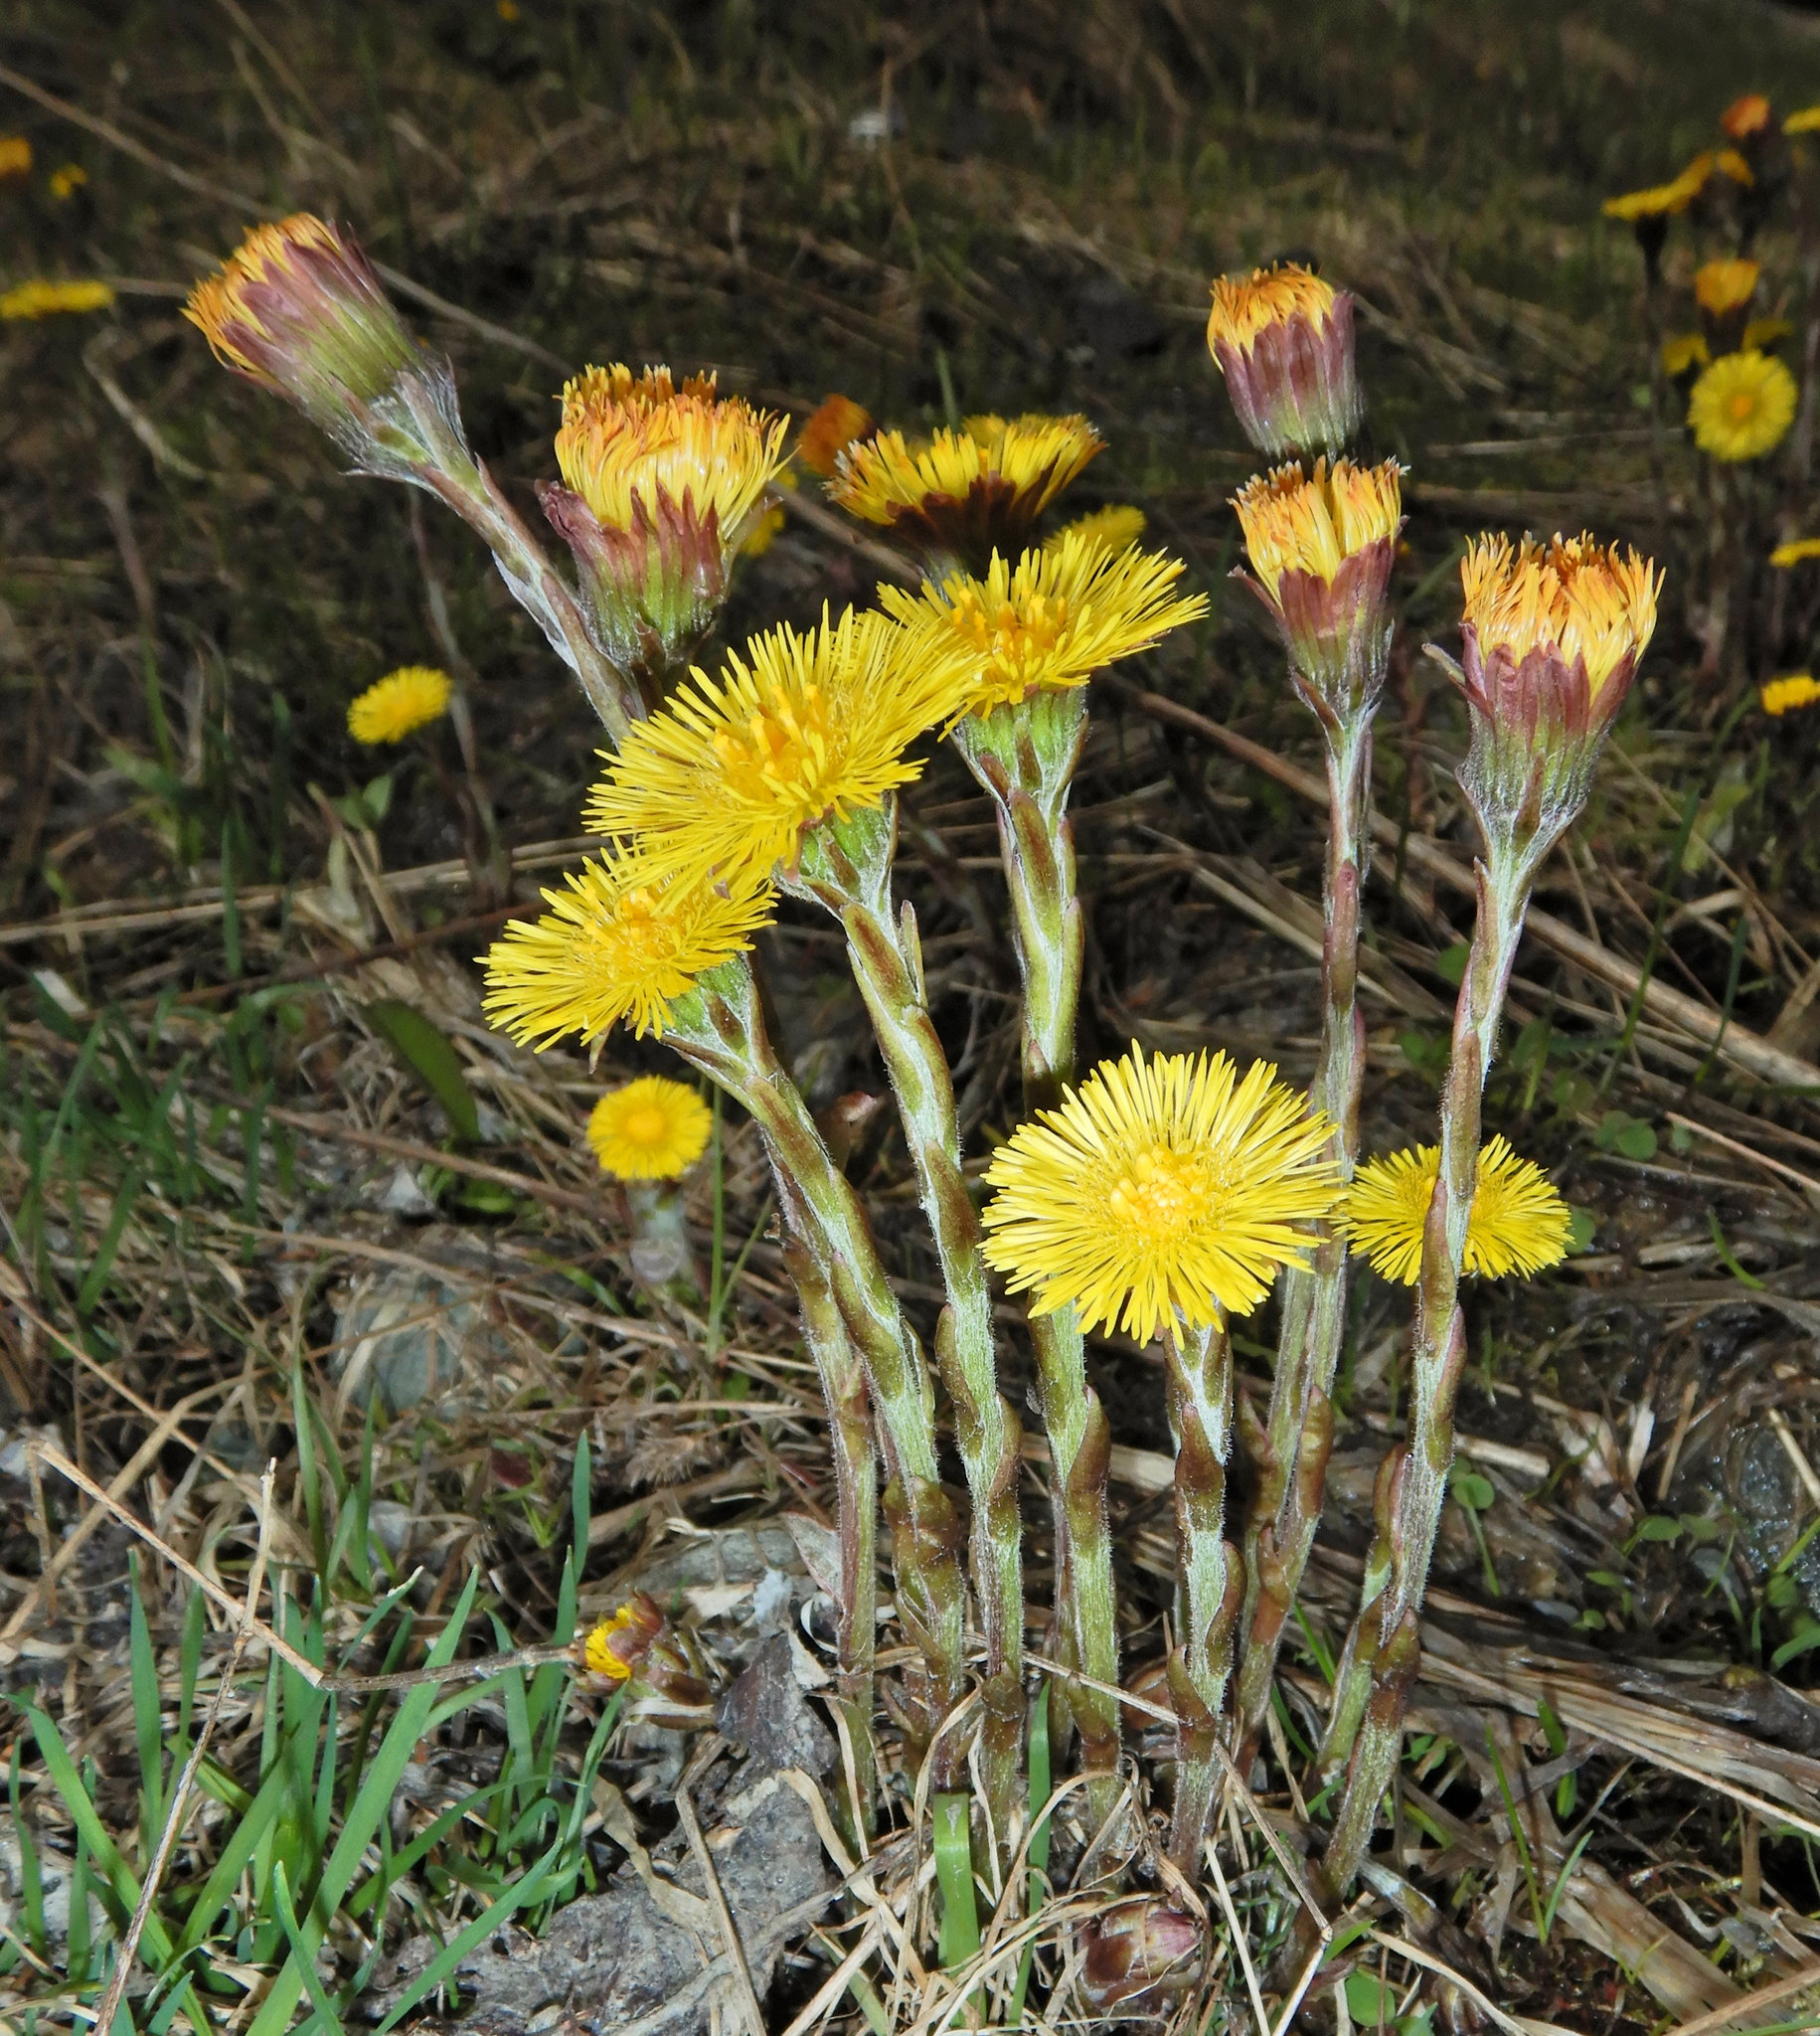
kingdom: Plantae
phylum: Tracheophyta
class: Magnoliopsida
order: Asterales
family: Asteraceae
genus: Tussilago
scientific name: Tussilago farfara
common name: Coltsfoot
